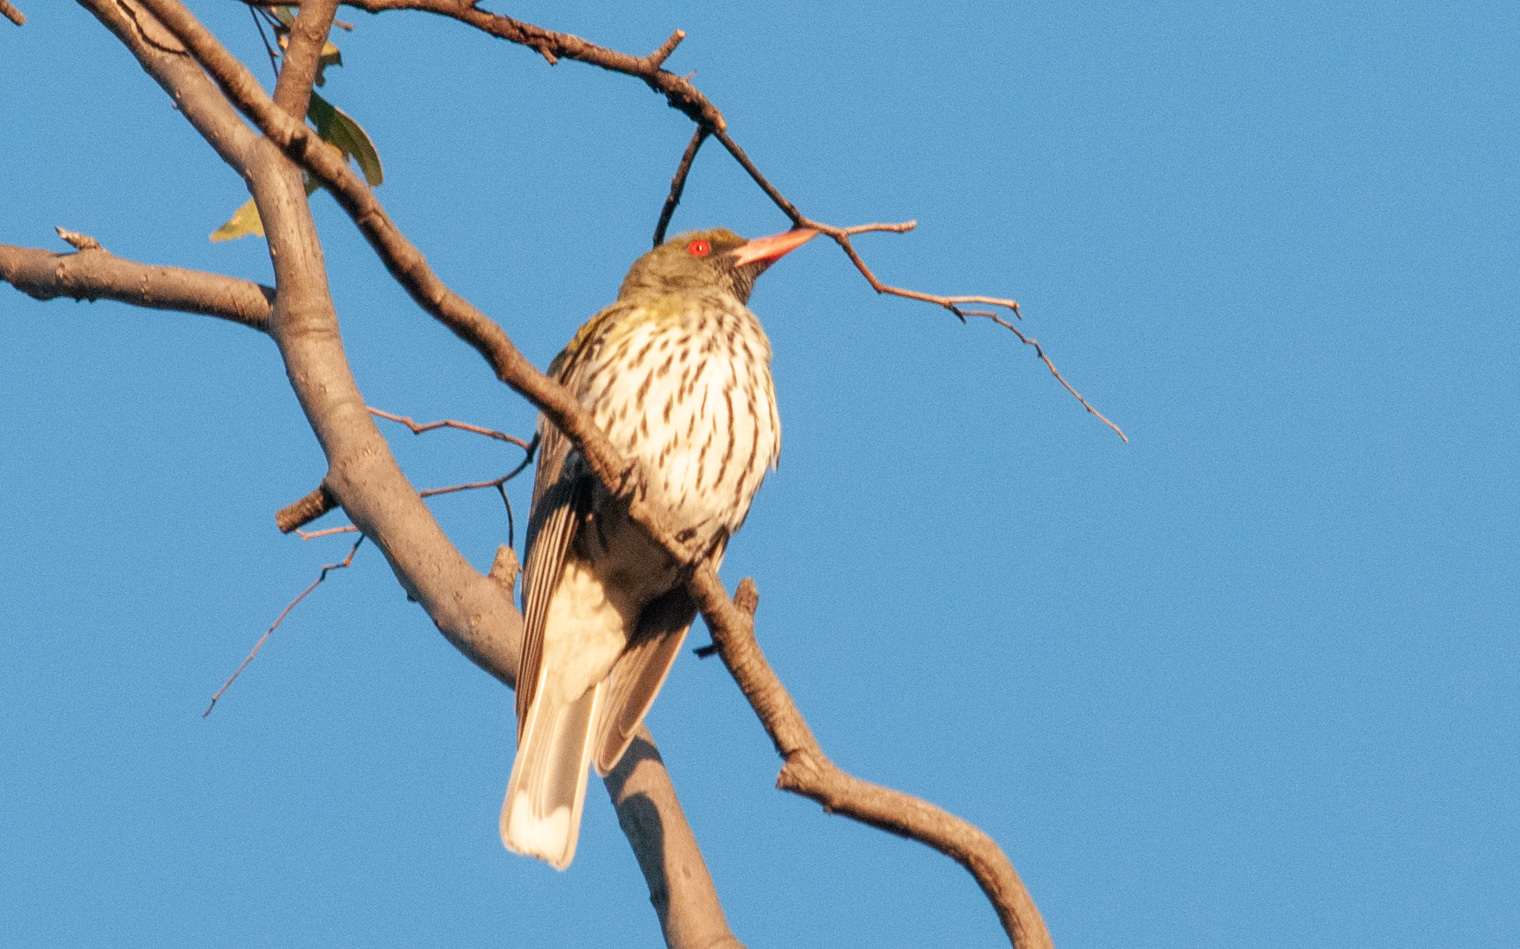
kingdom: Animalia
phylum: Chordata
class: Aves
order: Passeriformes
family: Oriolidae
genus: Oriolus
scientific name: Oriolus sagittatus
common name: Olive-backed oriole
